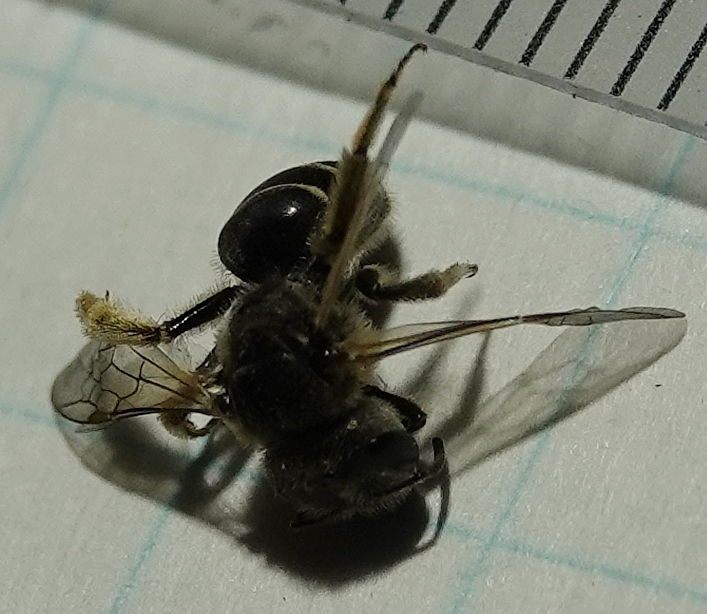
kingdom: Animalia
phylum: Arthropoda
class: Insecta
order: Hymenoptera
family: Halictidae
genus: Halictus
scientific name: Halictus ligatus
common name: Ligated furrow bee
